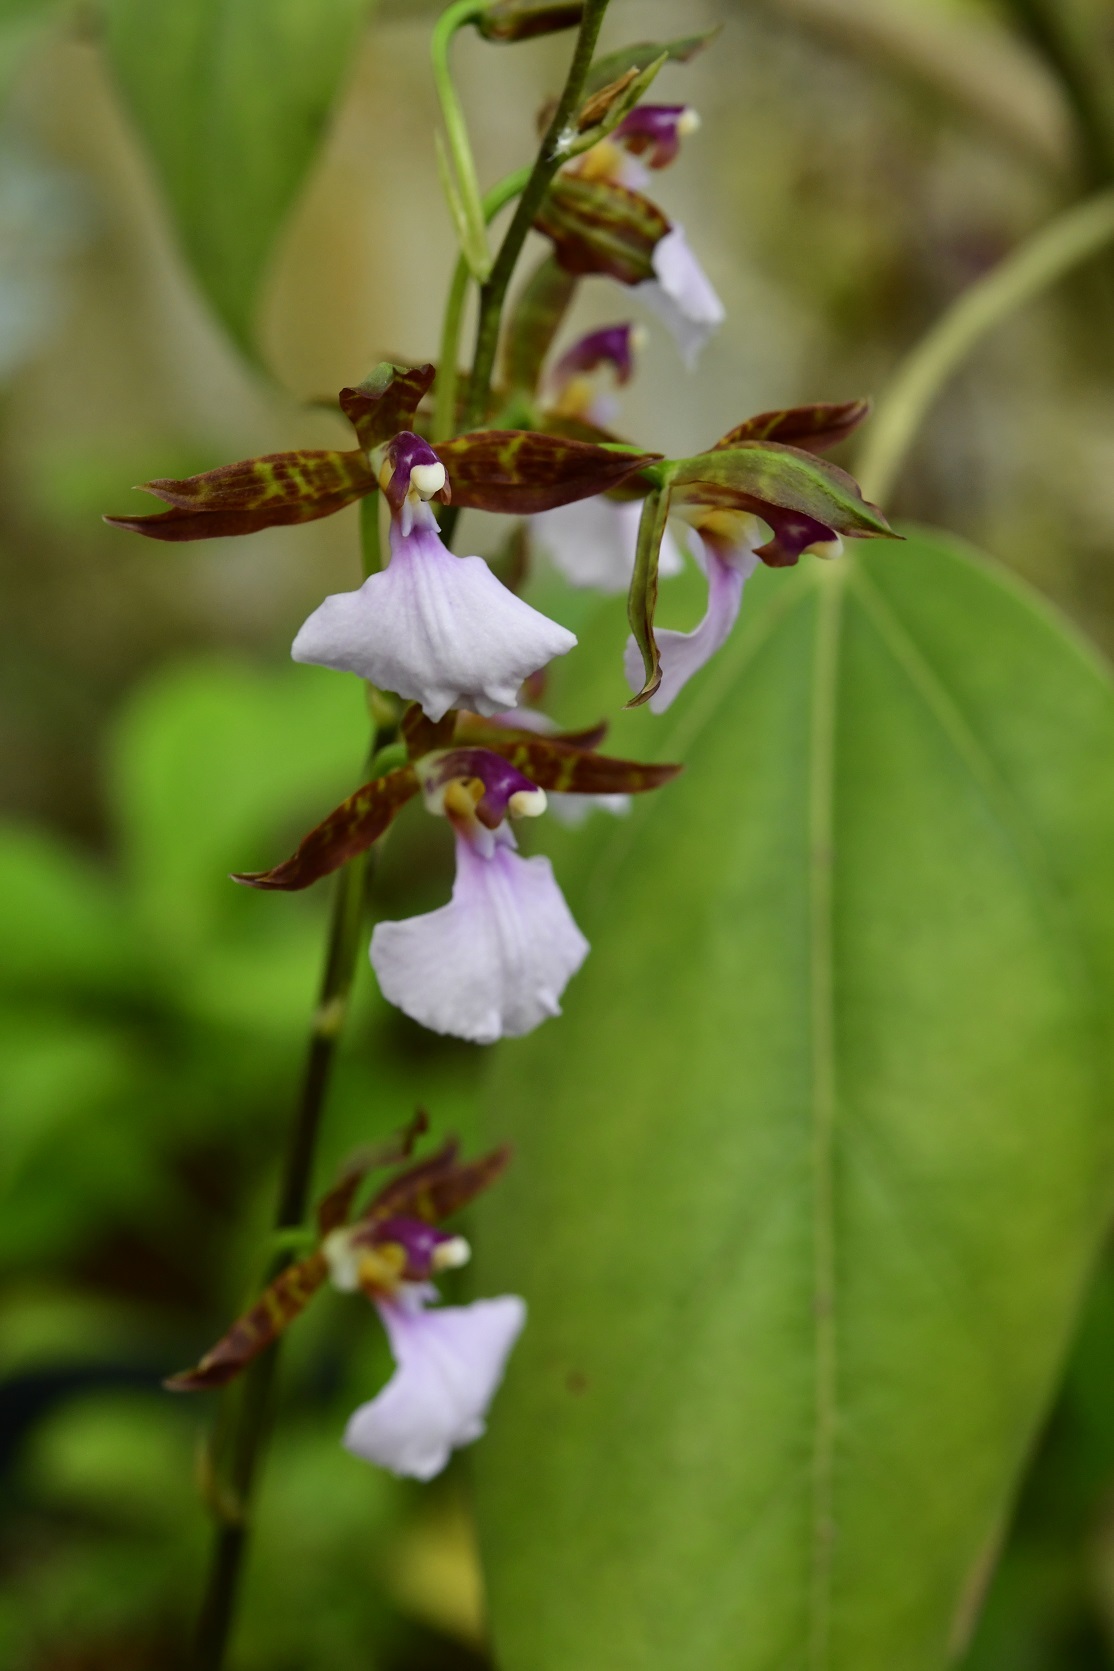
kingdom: Plantae
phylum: Tracheophyta
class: Liliopsida
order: Asparagales
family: Orchidaceae
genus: Rhynchostele
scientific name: Rhynchostele bictoniensis
